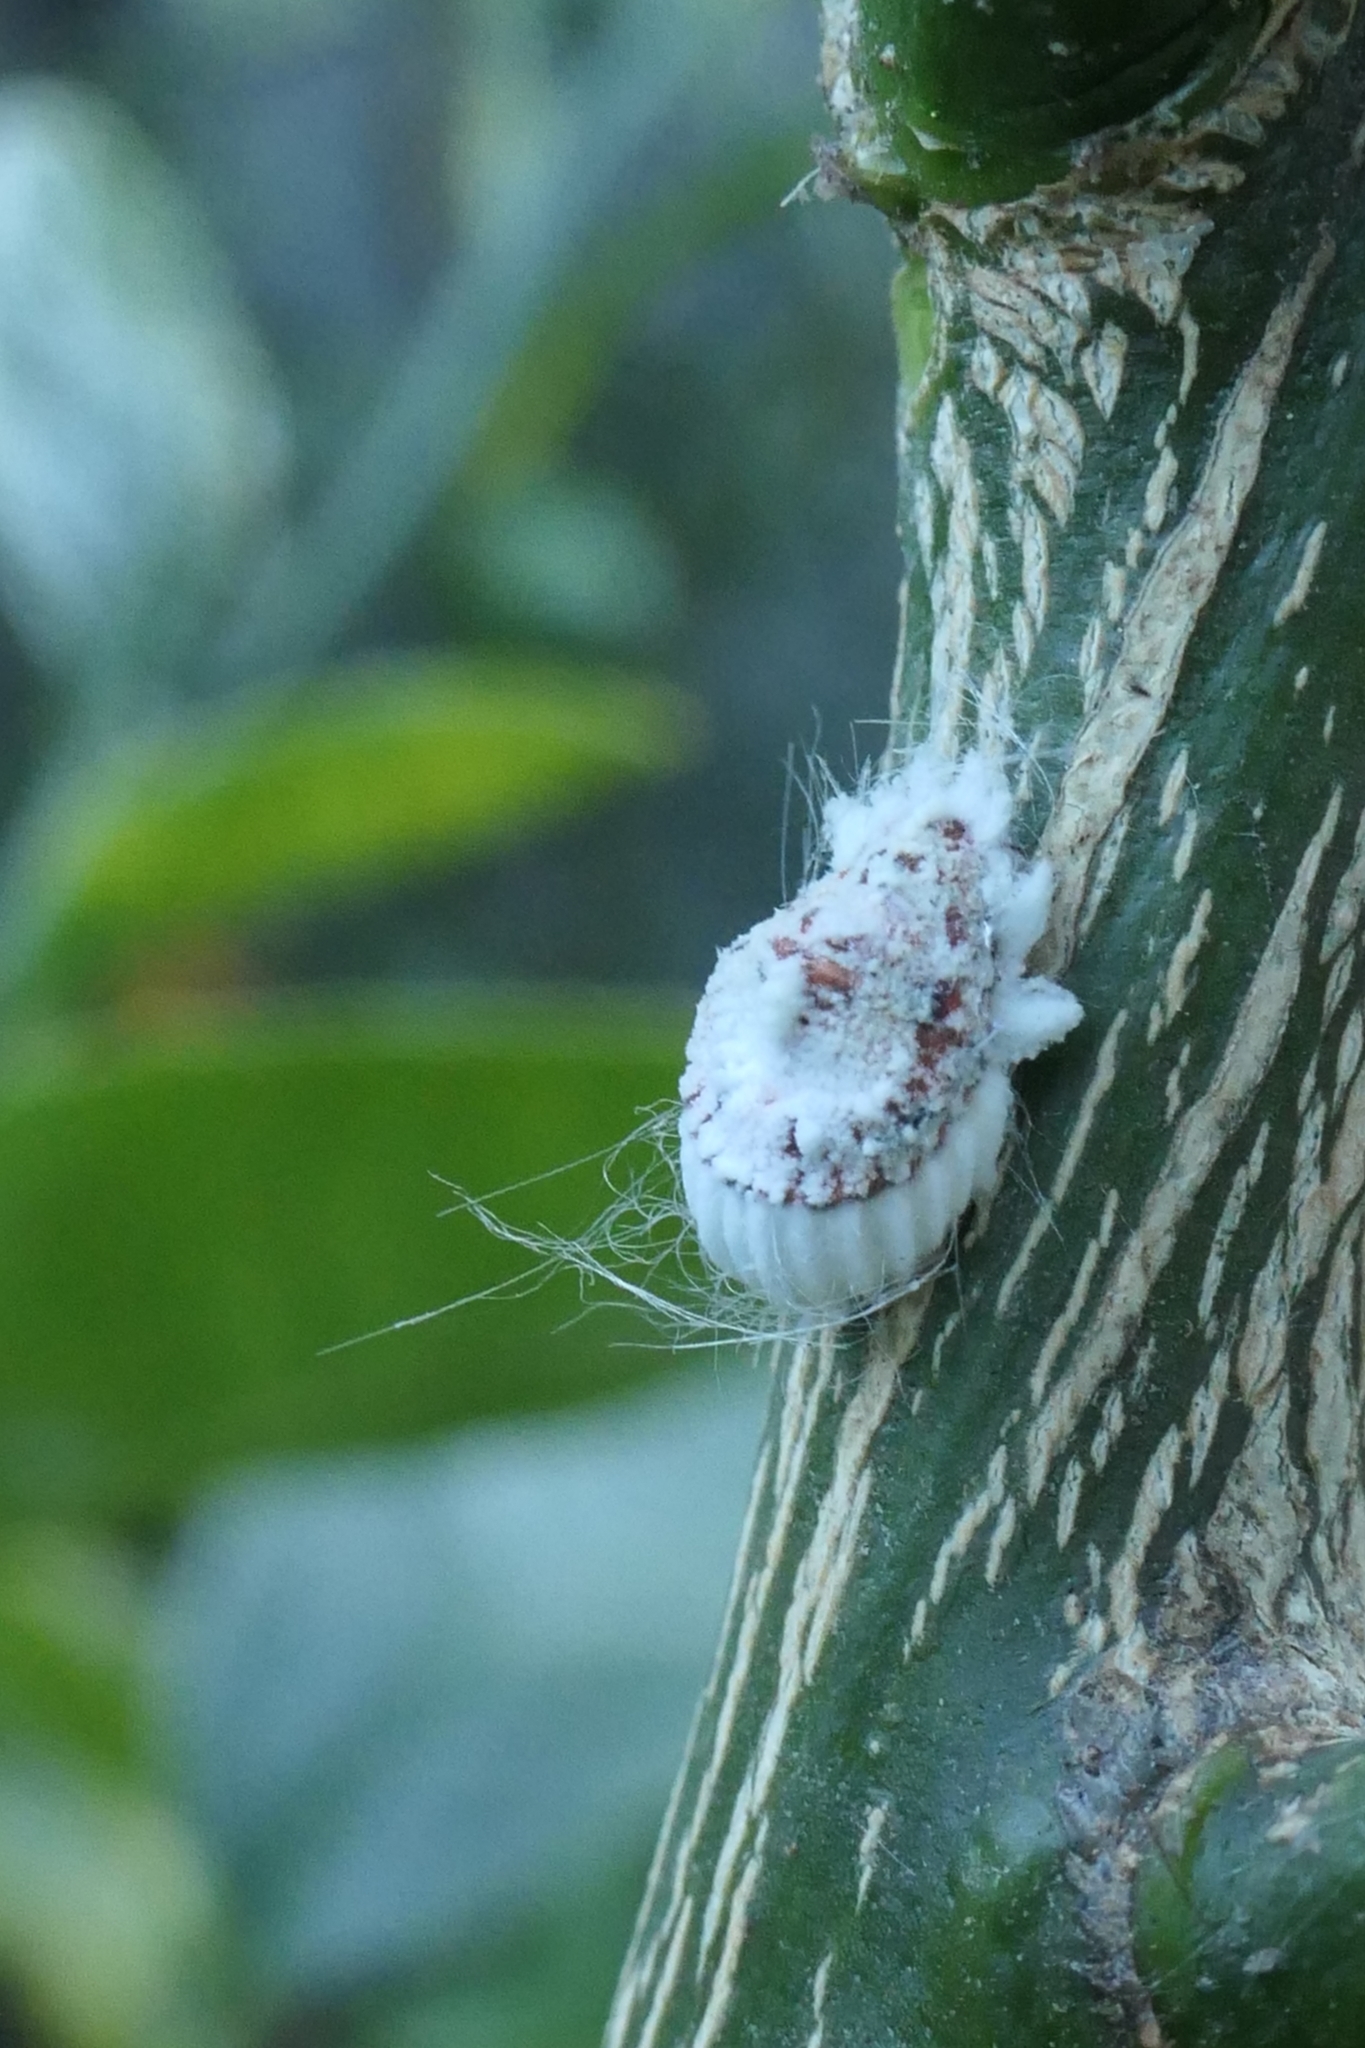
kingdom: Animalia
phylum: Arthropoda
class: Insecta
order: Hemiptera
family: Margarodidae
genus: Icerya
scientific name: Icerya purchasi
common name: Cottony cushion scale
